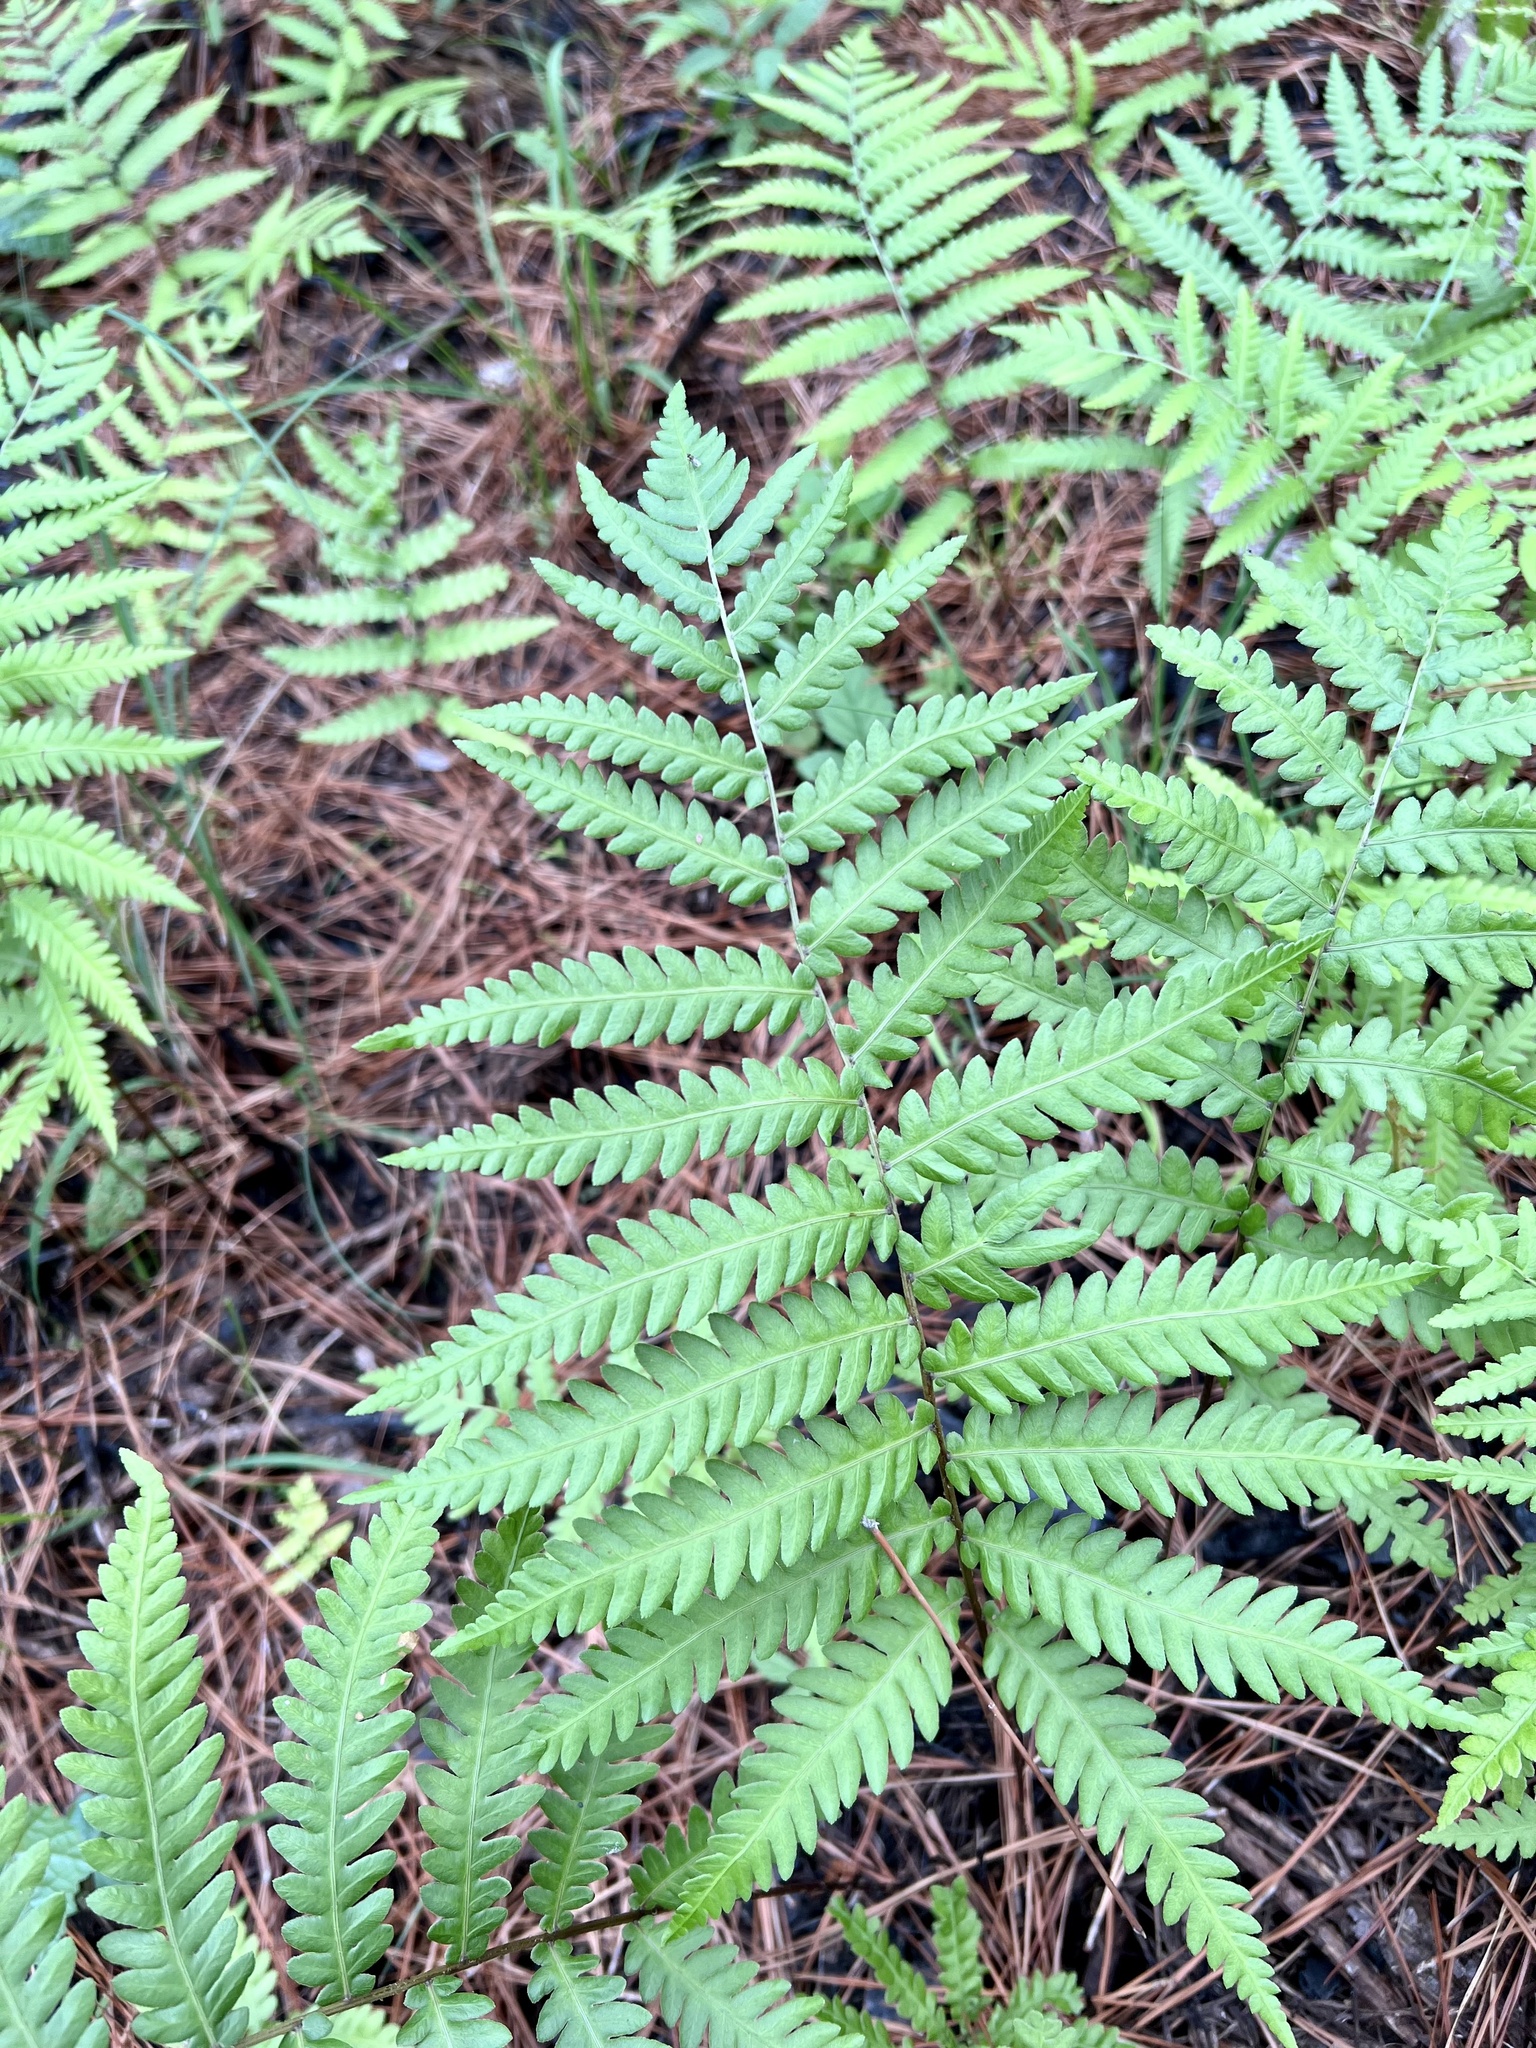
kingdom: Plantae
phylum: Tracheophyta
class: Polypodiopsida
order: Polypodiales
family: Blechnaceae
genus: Anchistea
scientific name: Anchistea virginica
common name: Virginia chain fern
